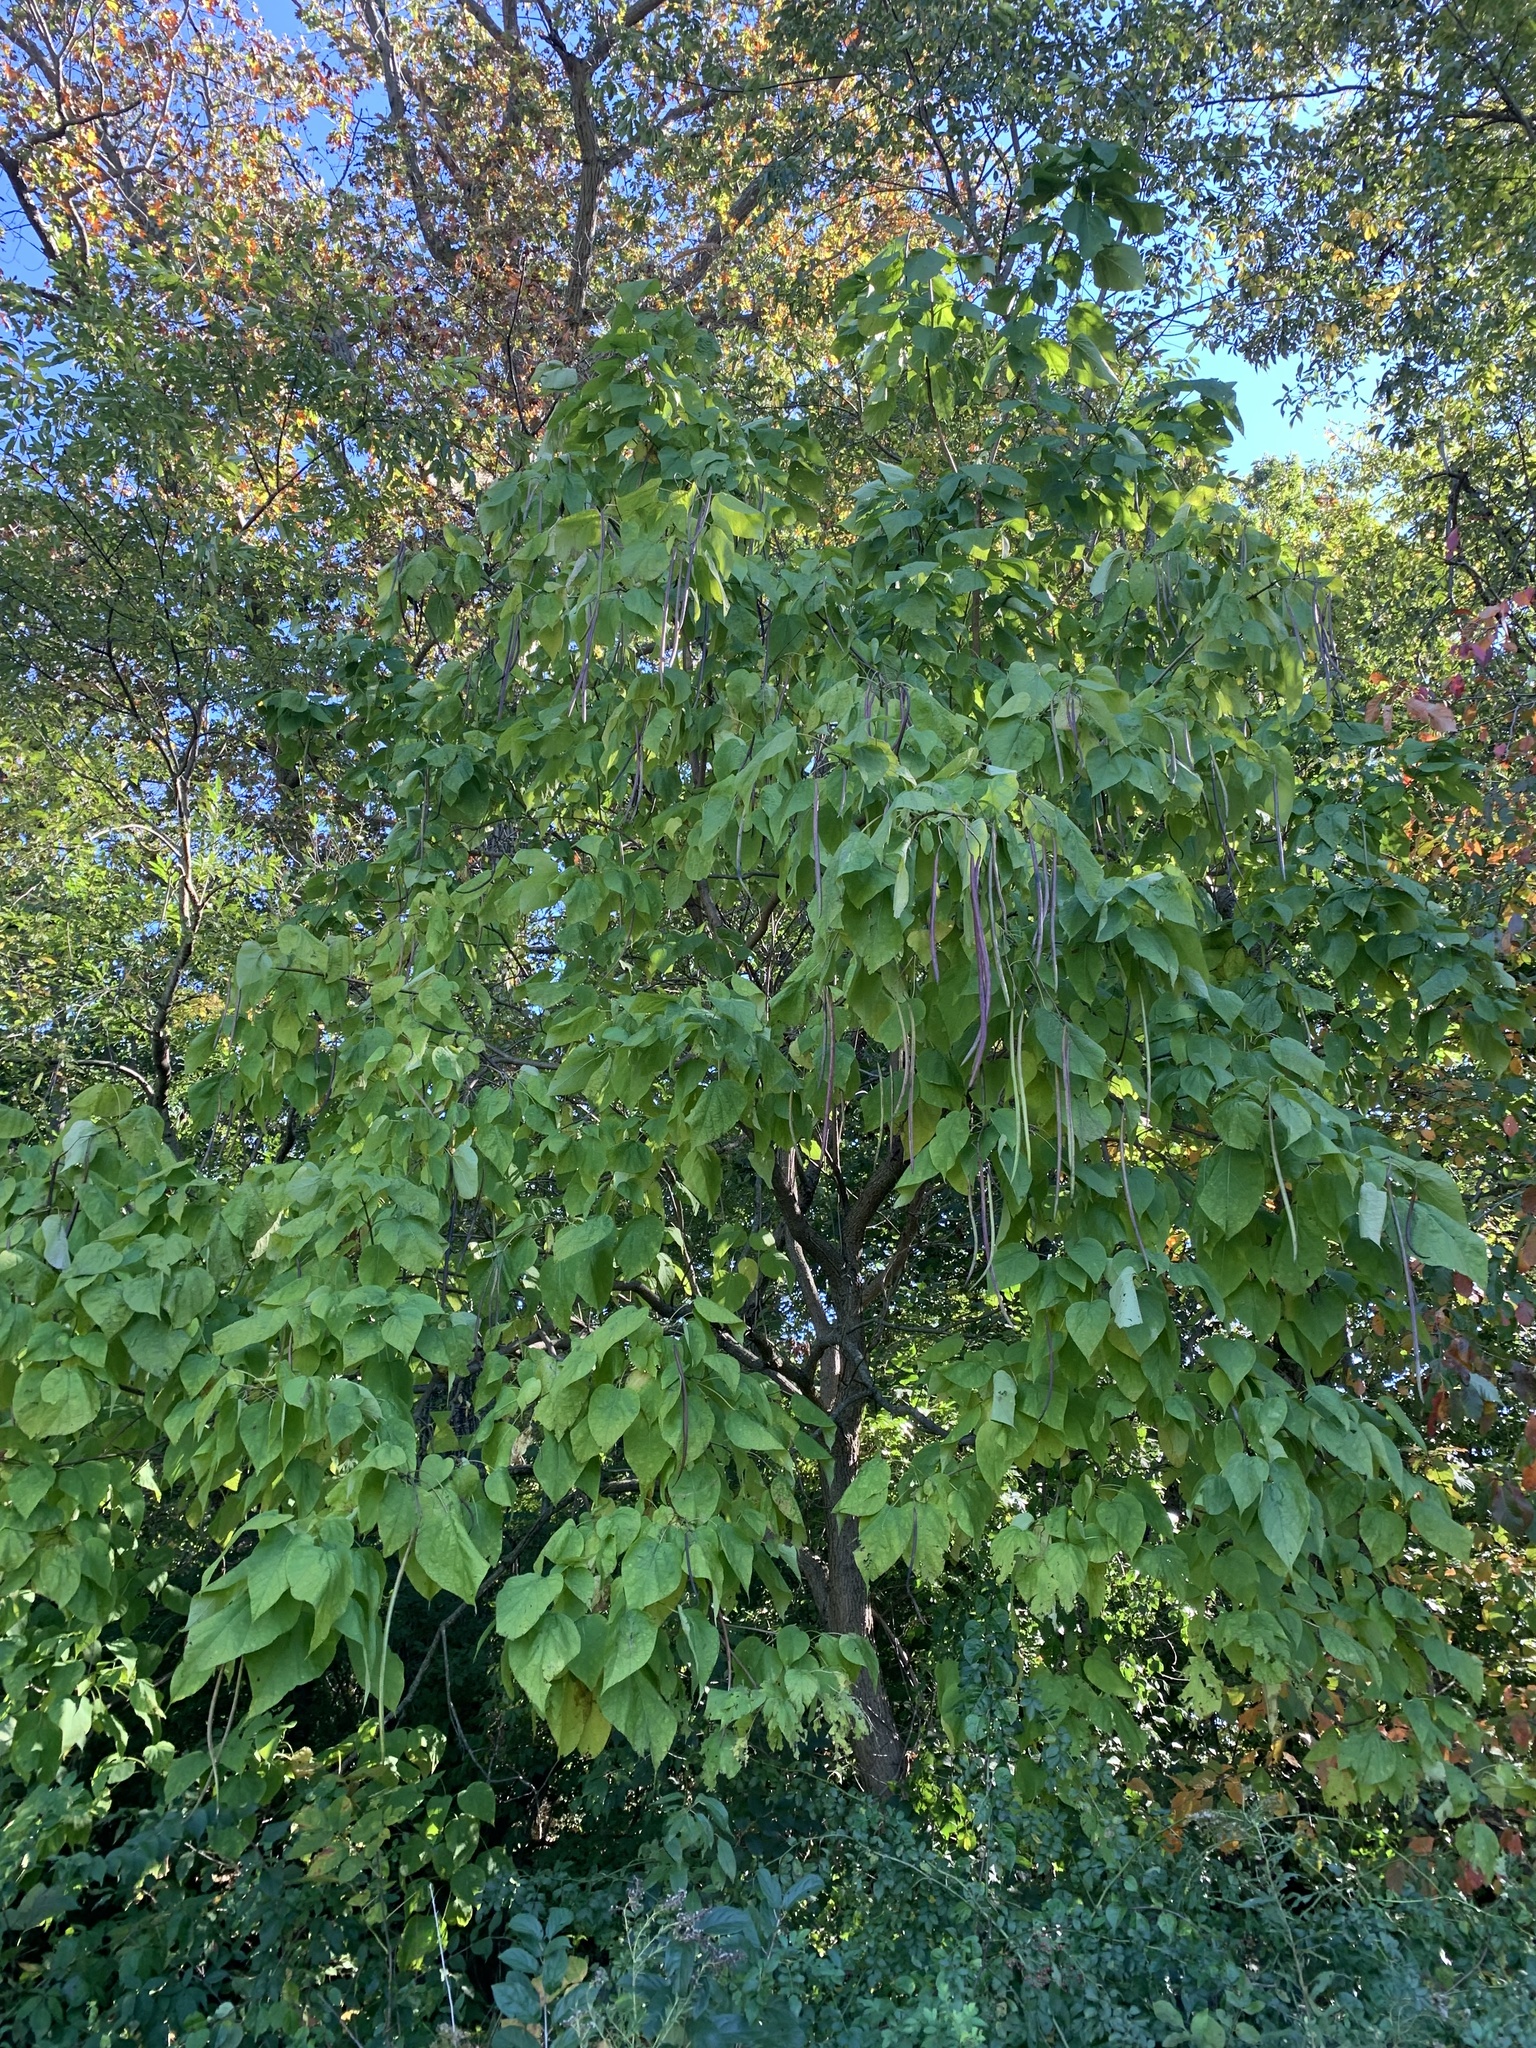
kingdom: Plantae
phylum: Tracheophyta
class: Magnoliopsida
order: Lamiales
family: Bignoniaceae
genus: Catalpa
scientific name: Catalpa speciosa
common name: Northern catalpa
